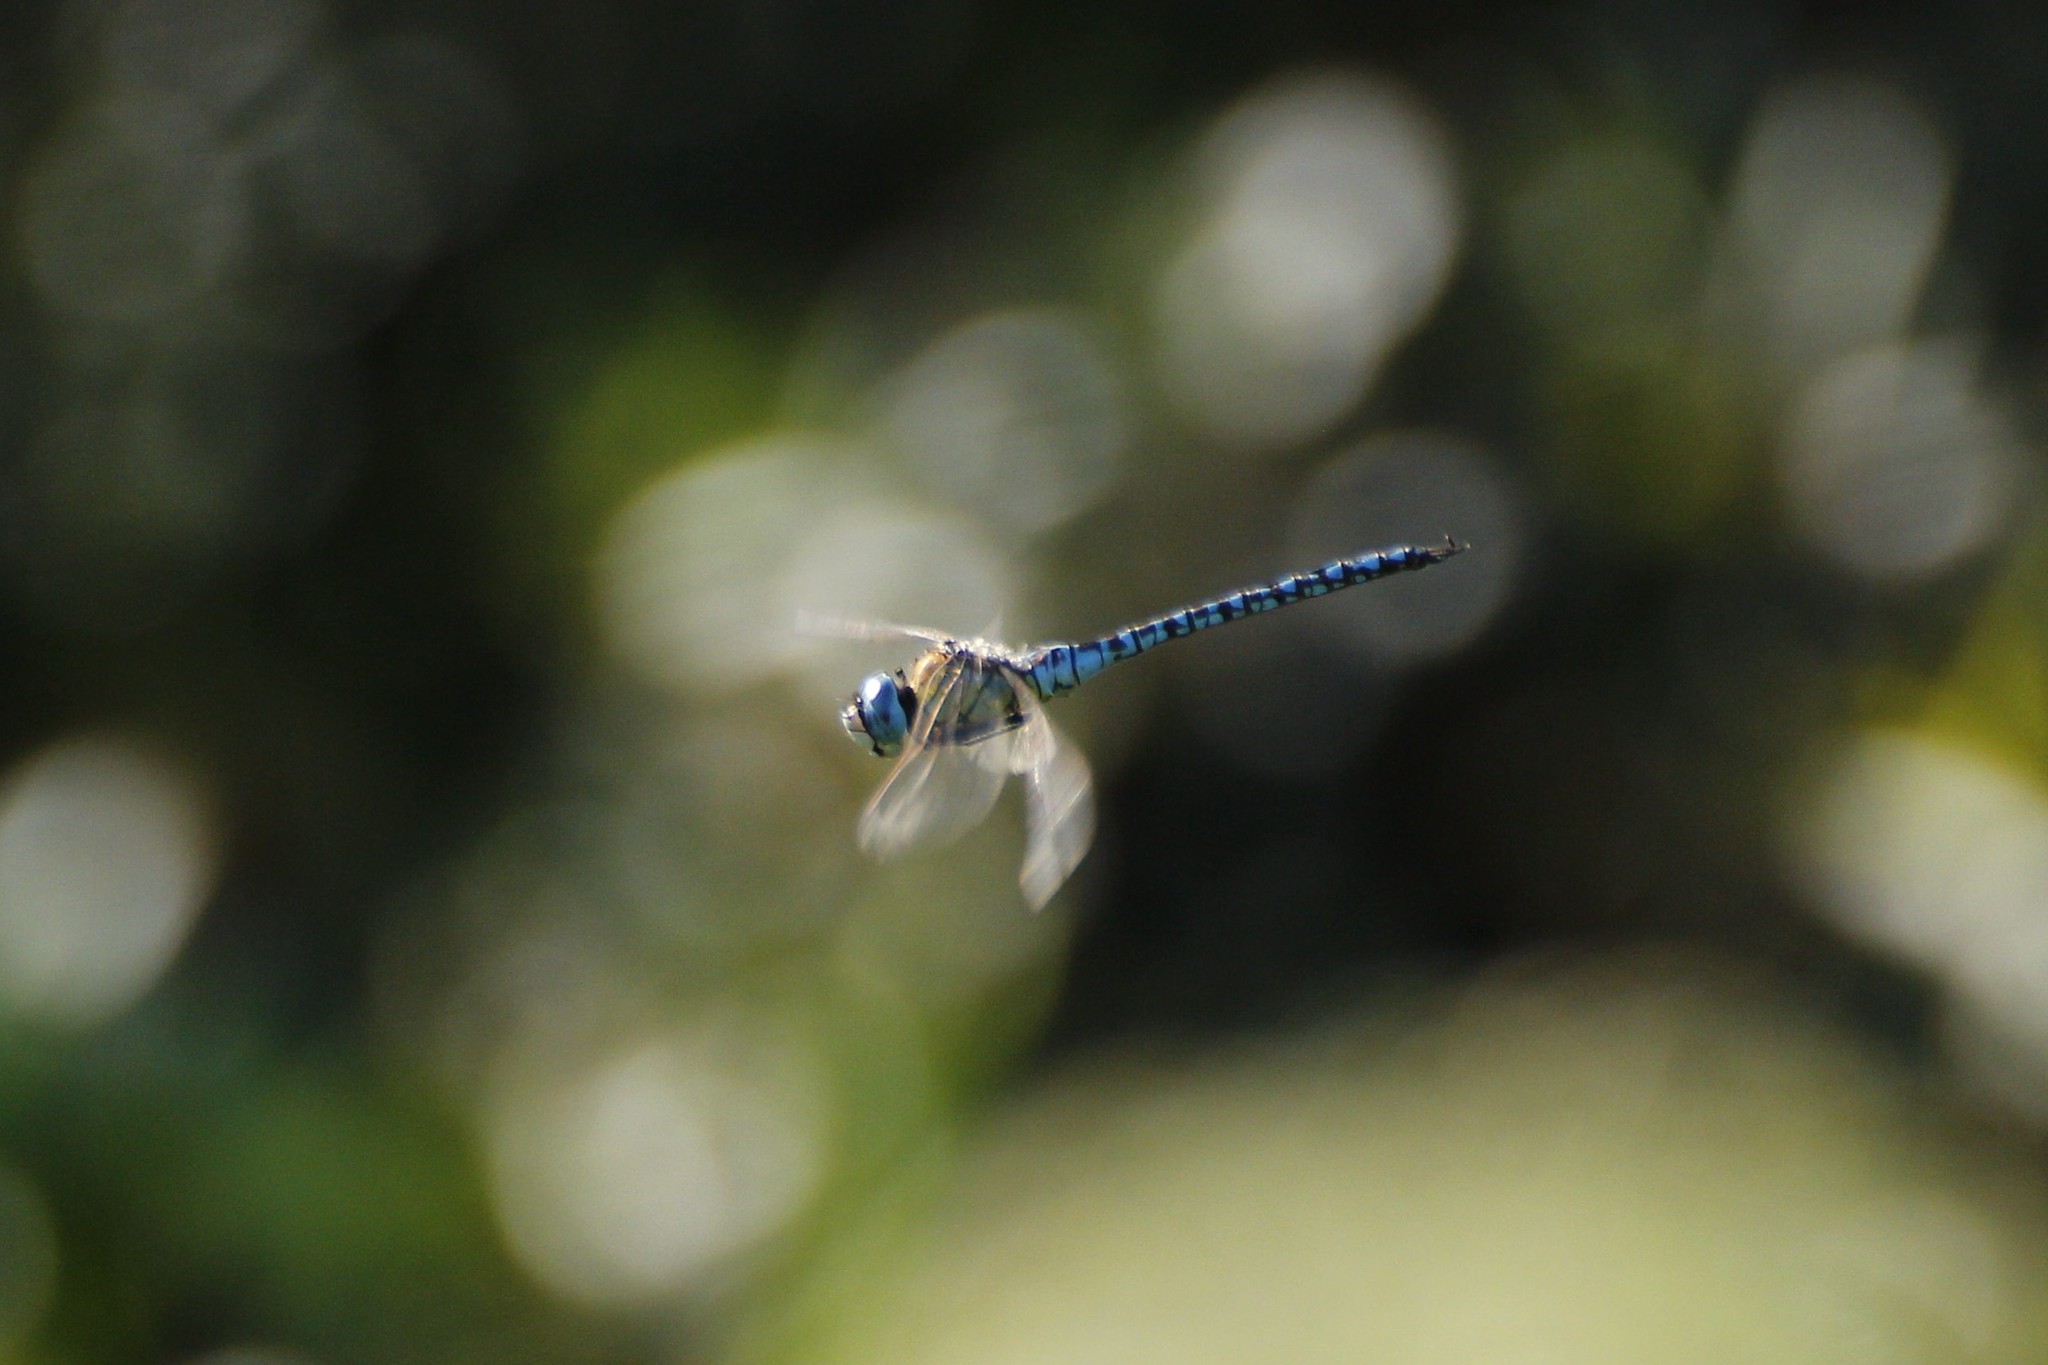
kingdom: Animalia
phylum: Arthropoda
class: Insecta
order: Odonata
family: Aeshnidae
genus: Aeshna
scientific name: Aeshna affinis
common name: Southern migrant hawker
